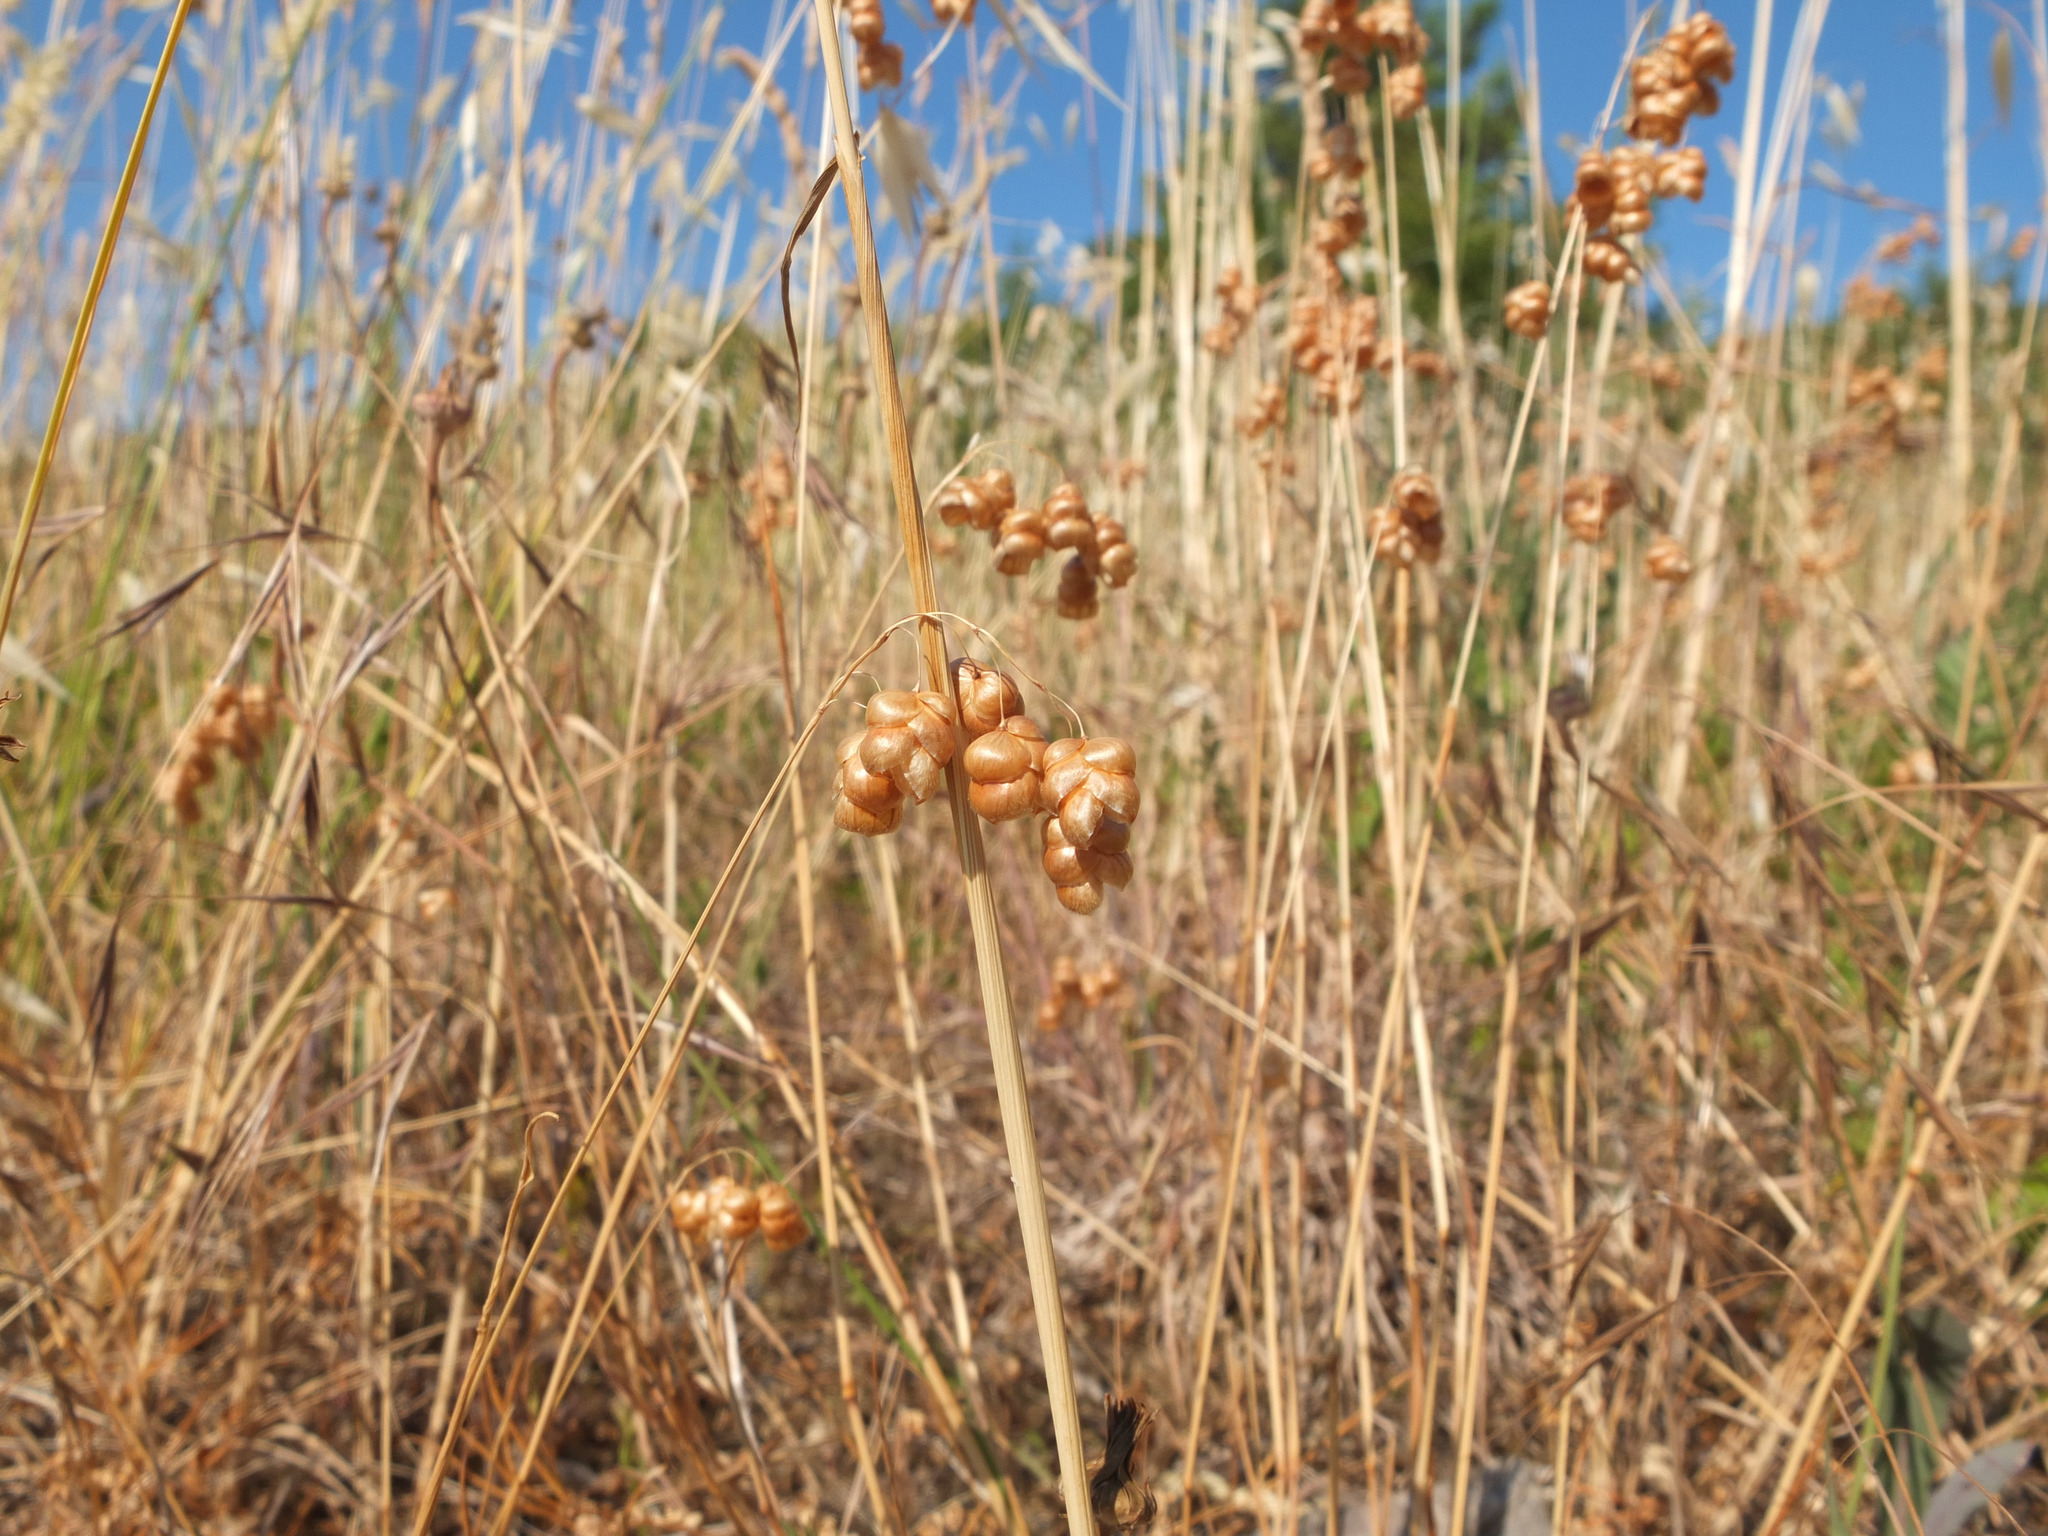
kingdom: Plantae
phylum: Tracheophyta
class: Liliopsida
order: Poales
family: Poaceae
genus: Briza
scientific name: Briza maxima
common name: Big quakinggrass
